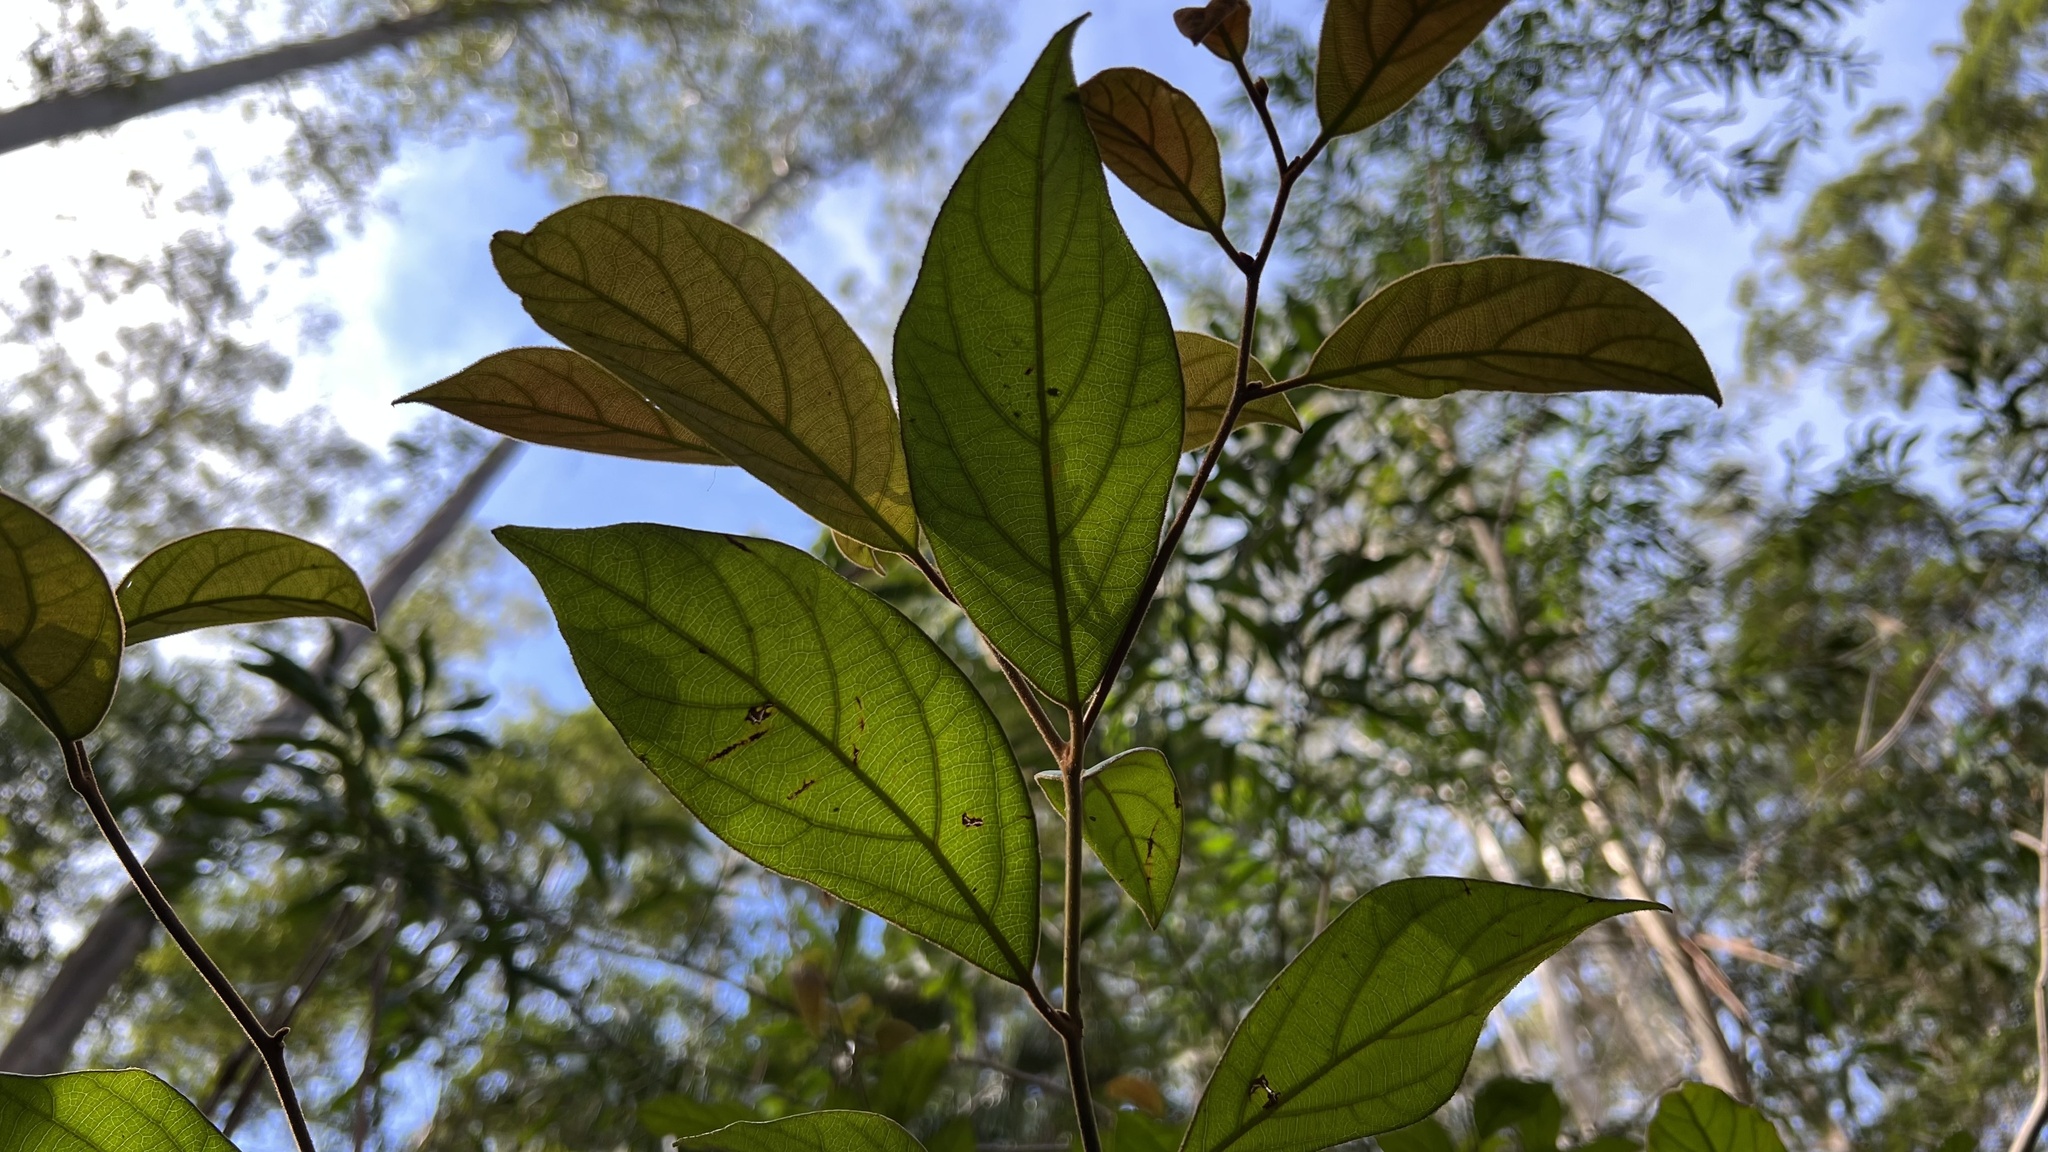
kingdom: Plantae
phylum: Tracheophyta
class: Magnoliopsida
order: Laurales
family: Lauraceae
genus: Endiandra
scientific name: Endiandra pubens
